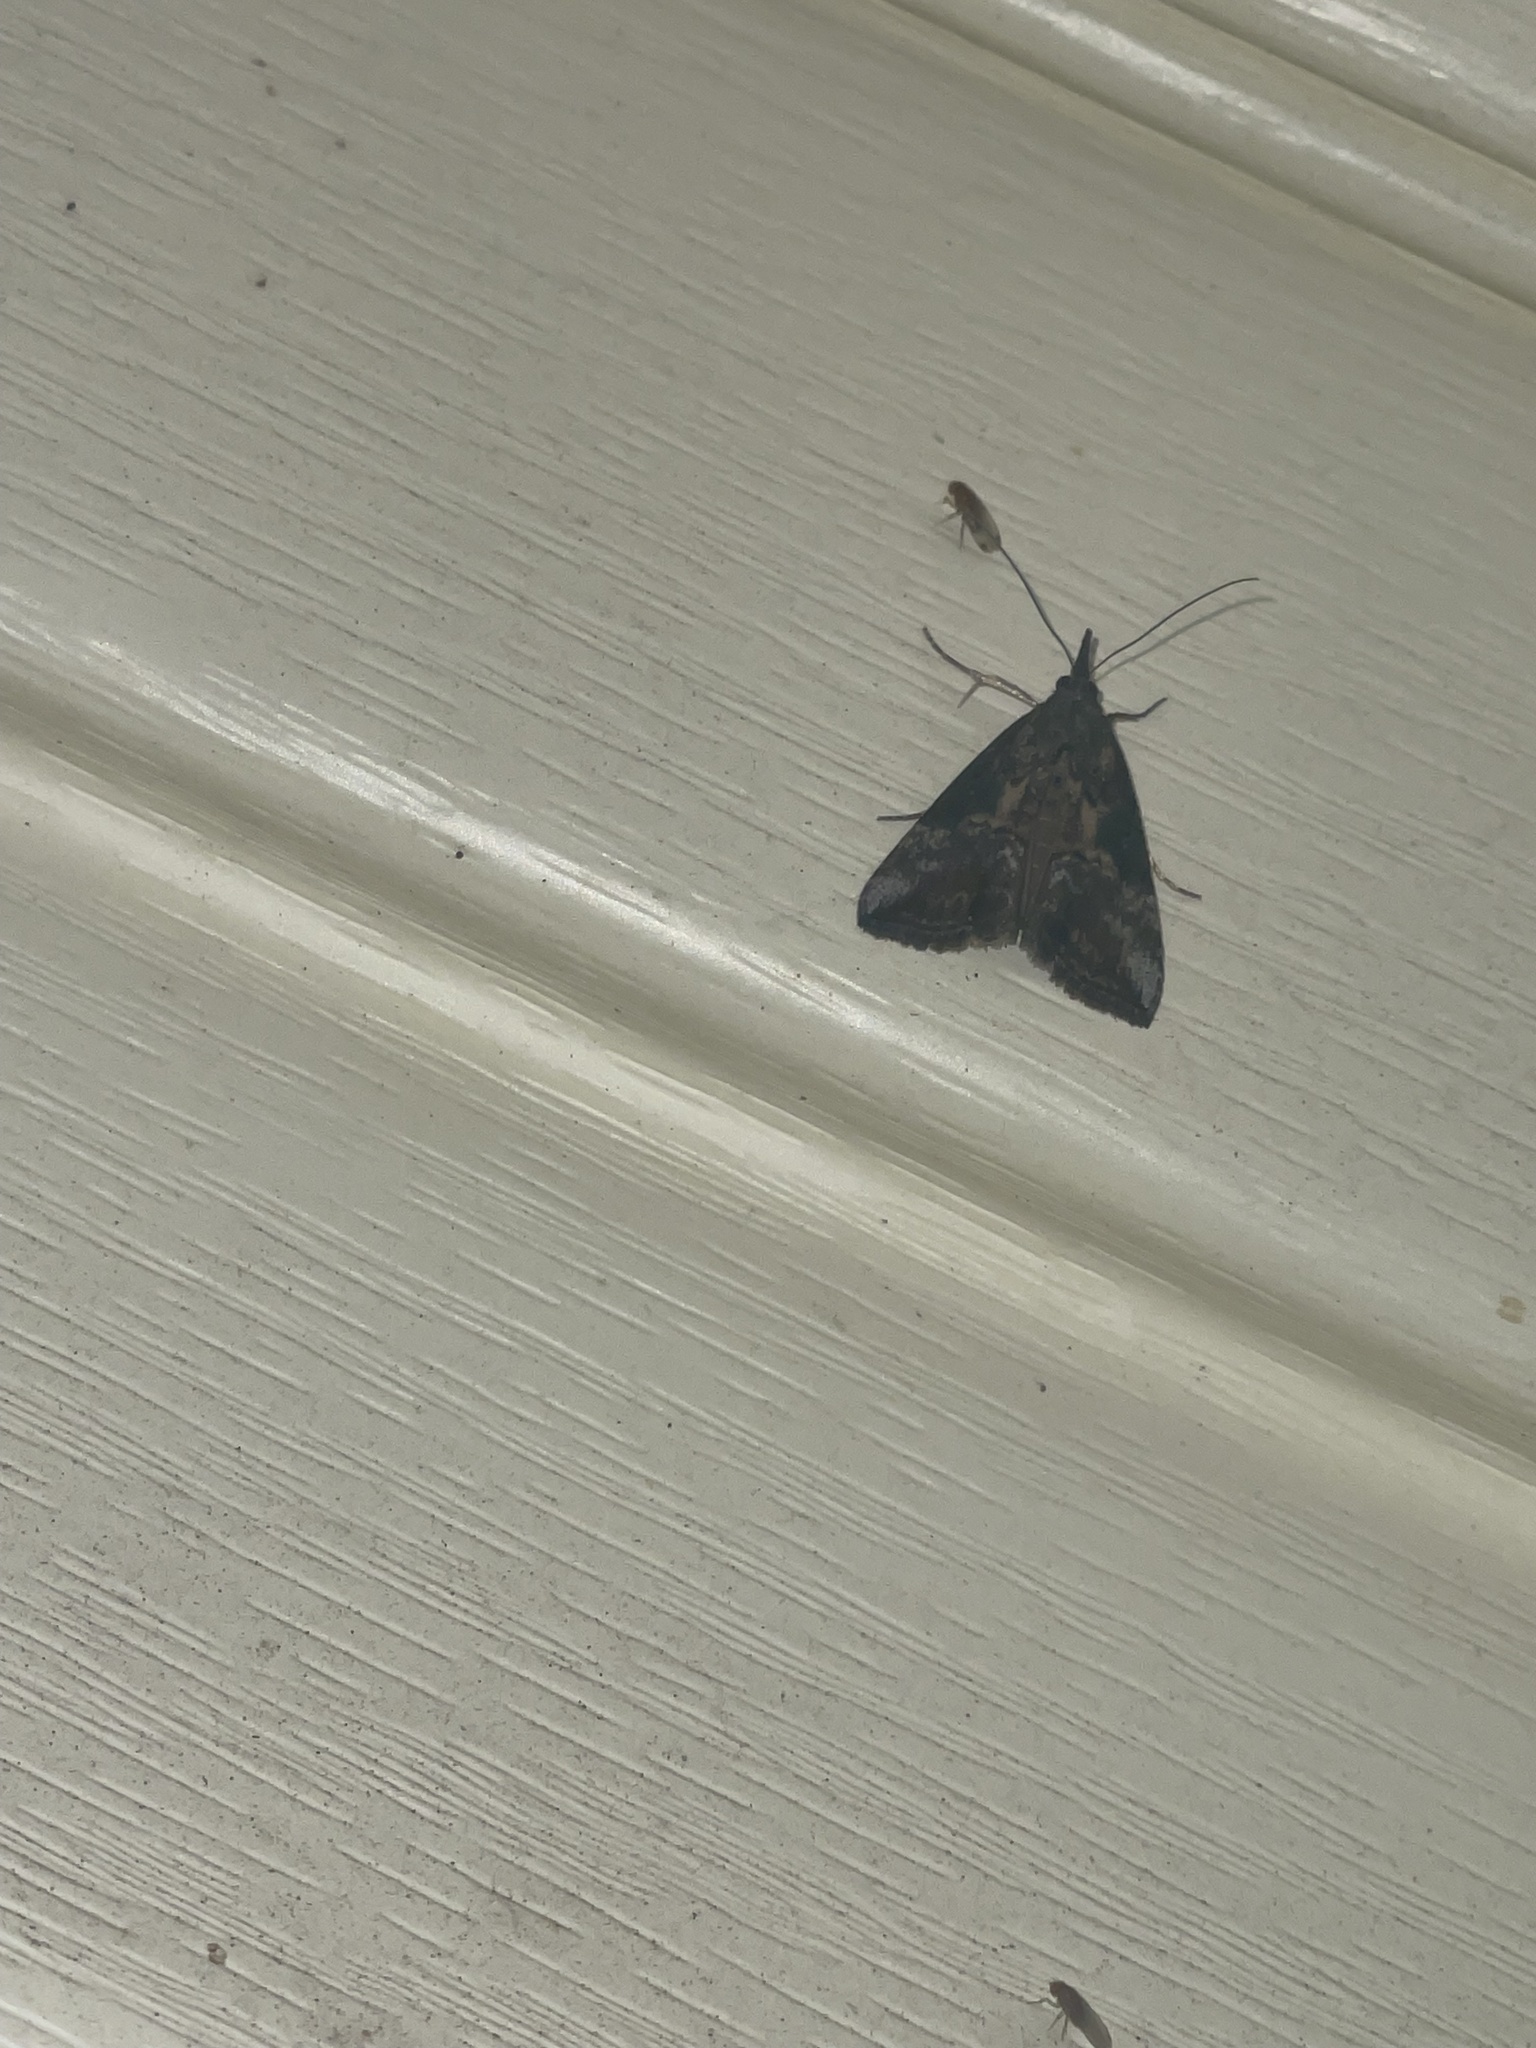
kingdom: Animalia
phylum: Arthropoda
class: Insecta
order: Lepidoptera
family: Erebidae
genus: Hypena
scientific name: Hypena scabra
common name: Green cloverworm
